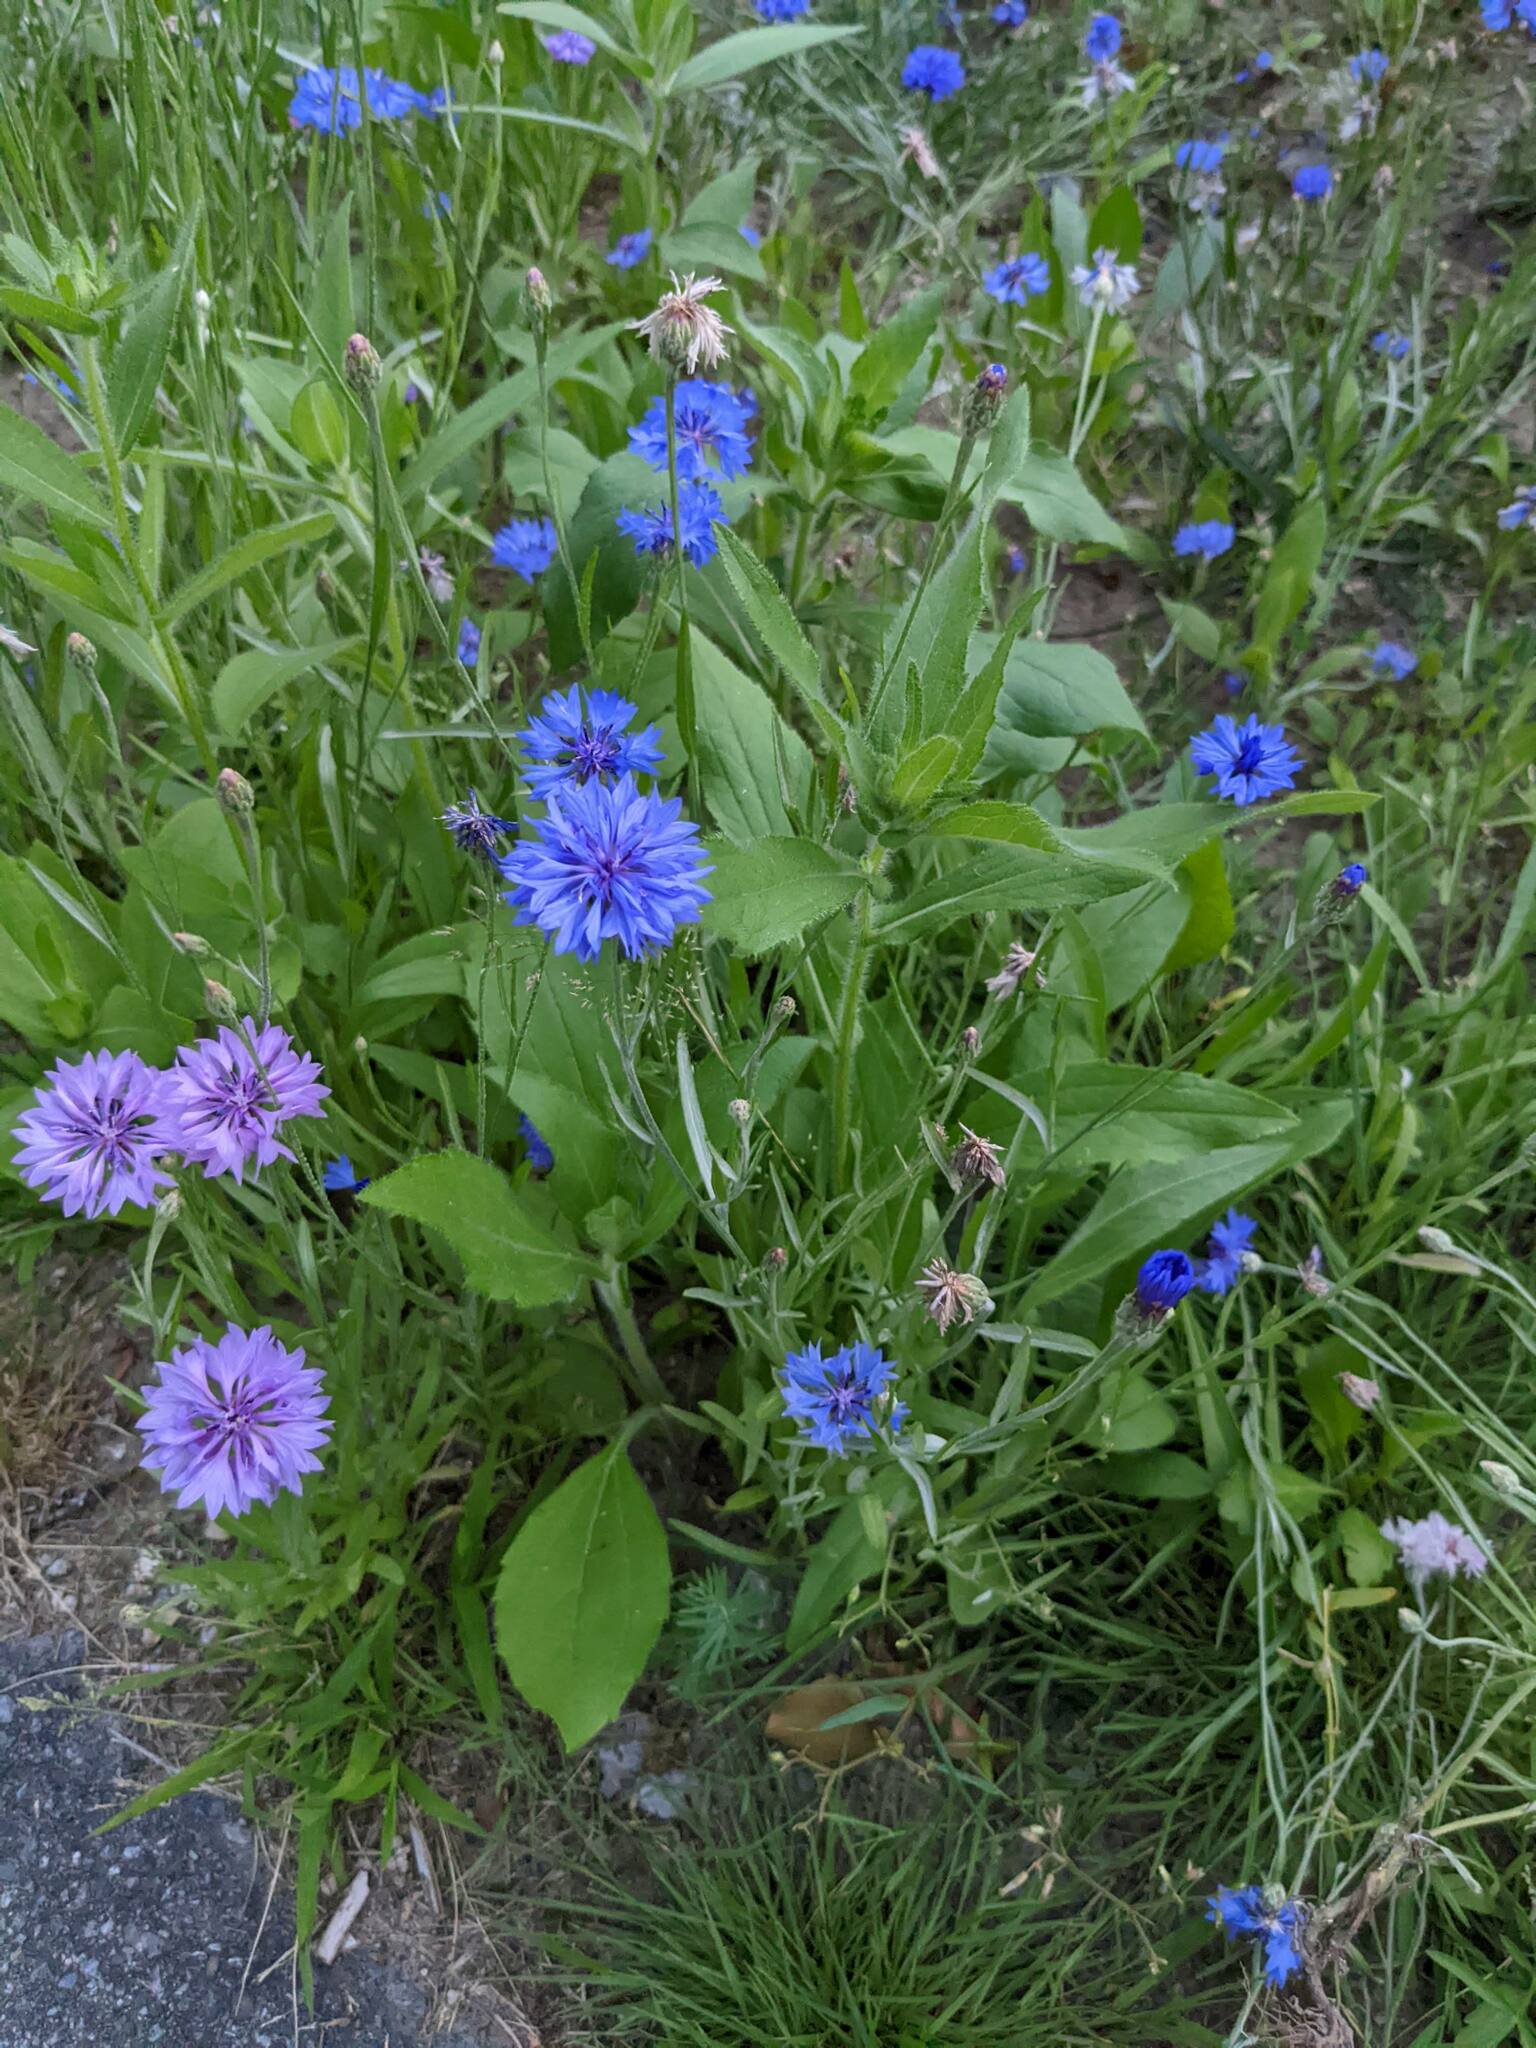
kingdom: Plantae
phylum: Tracheophyta
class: Magnoliopsida
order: Asterales
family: Asteraceae
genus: Centaurea
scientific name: Centaurea cyanus
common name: Cornflower
